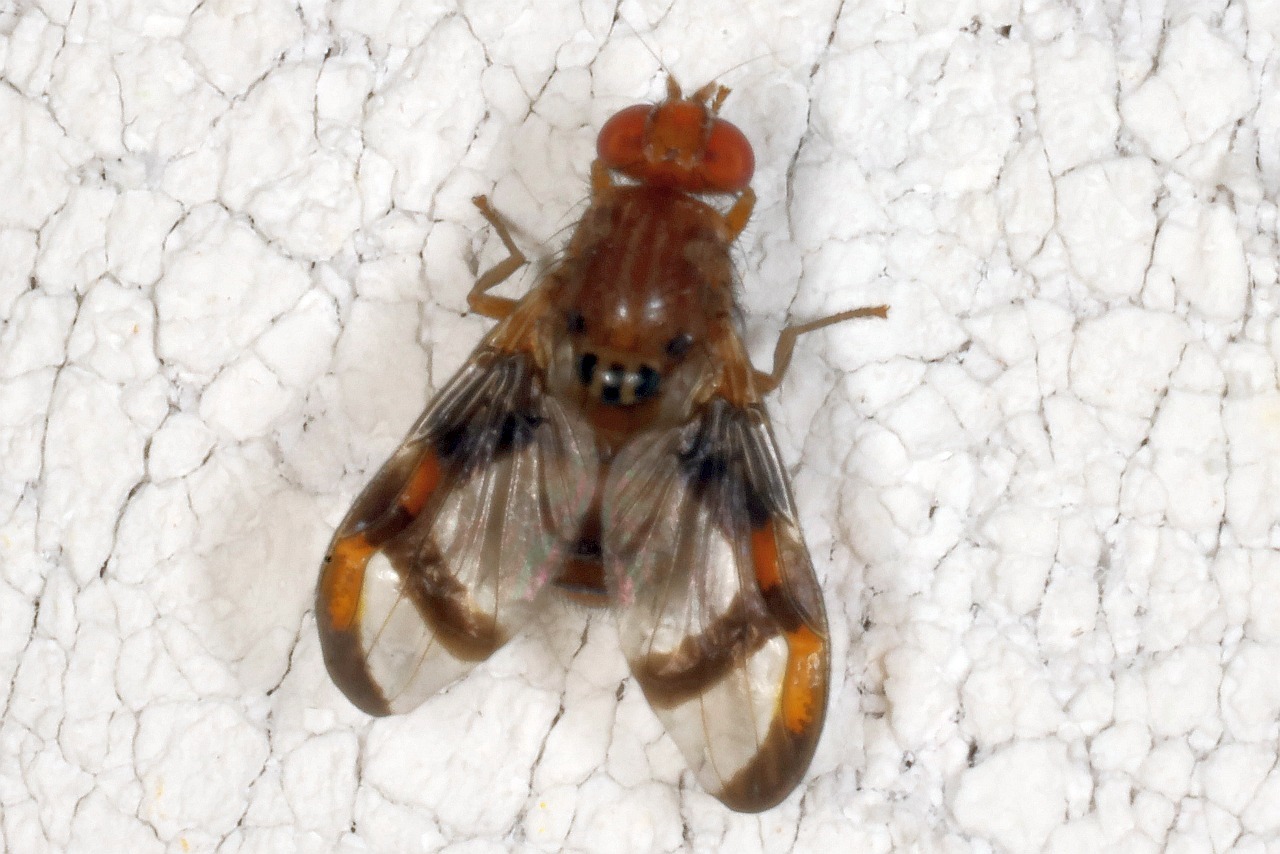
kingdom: Animalia
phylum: Arthropoda
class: Insecta
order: Diptera
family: Ulidiidae
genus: Xanthacrona
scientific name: Xanthacrona tripustulata
